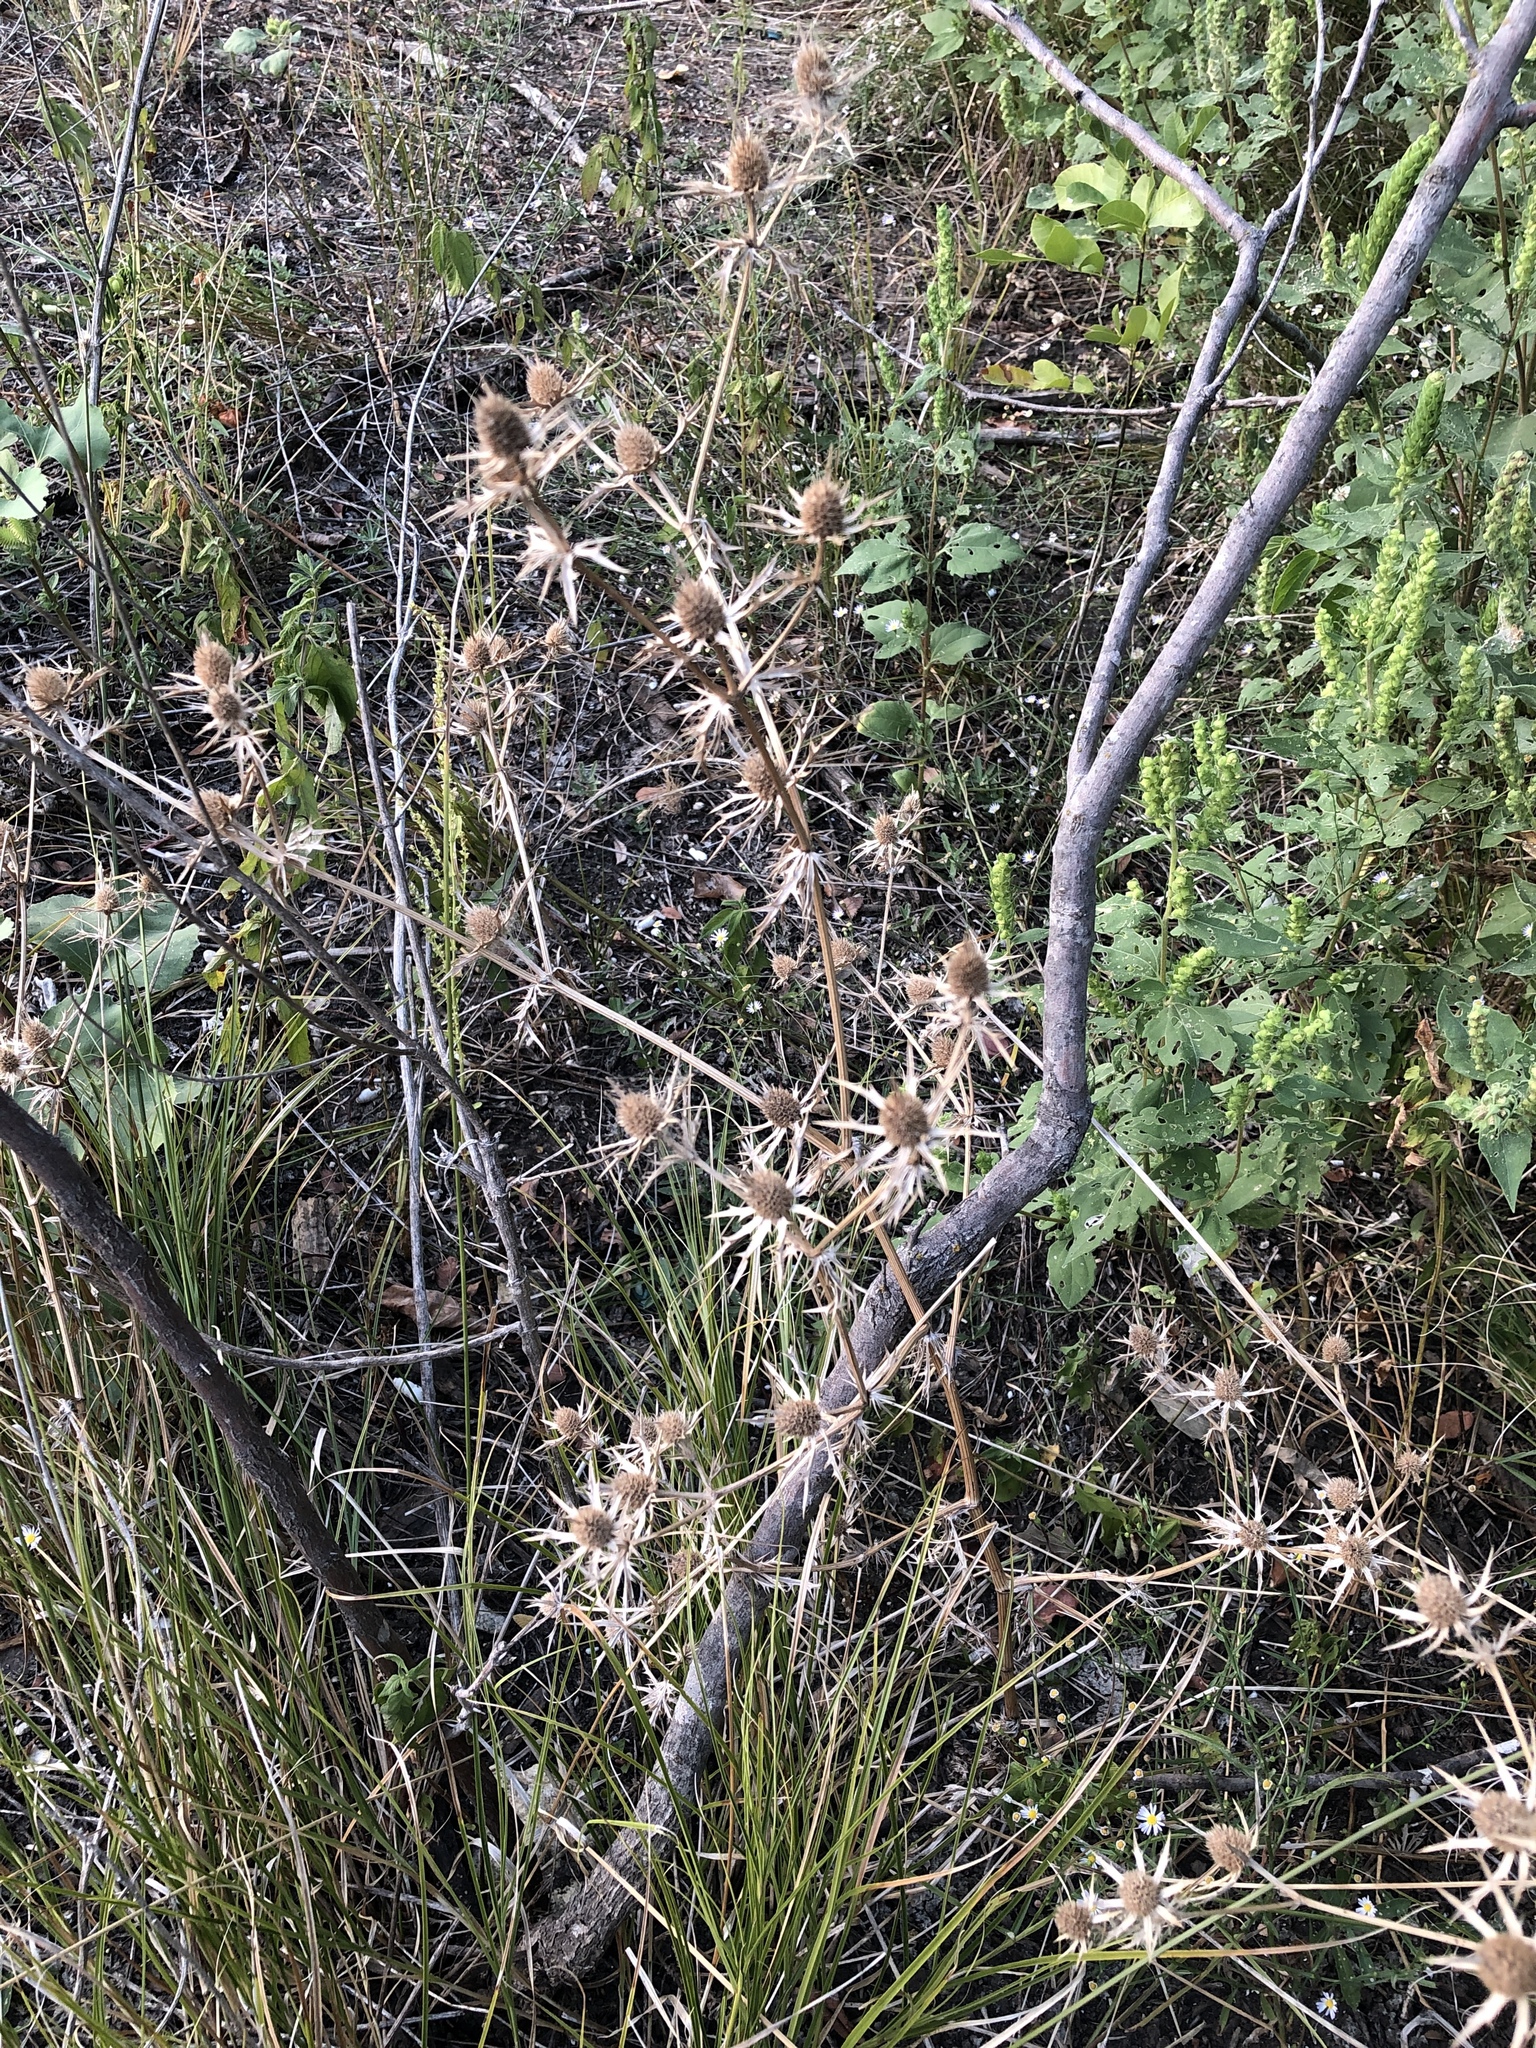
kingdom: Plantae
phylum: Tracheophyta
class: Magnoliopsida
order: Apiales
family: Apiaceae
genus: Eryngium
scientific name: Eryngium hookeri
